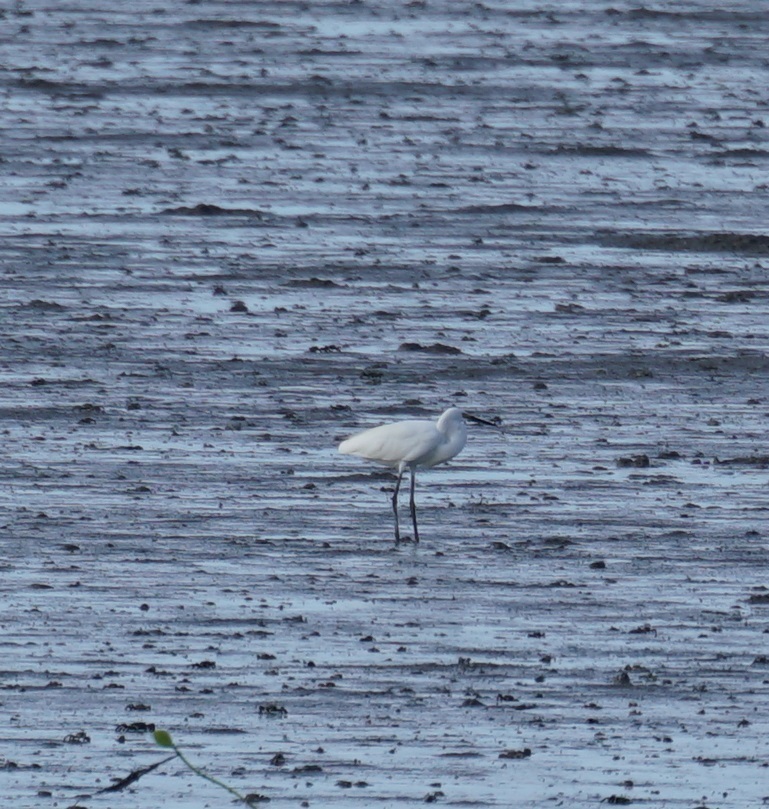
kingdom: Animalia
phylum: Chordata
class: Aves
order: Pelecaniformes
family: Ardeidae
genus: Egretta
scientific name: Egretta garzetta
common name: Little egret
